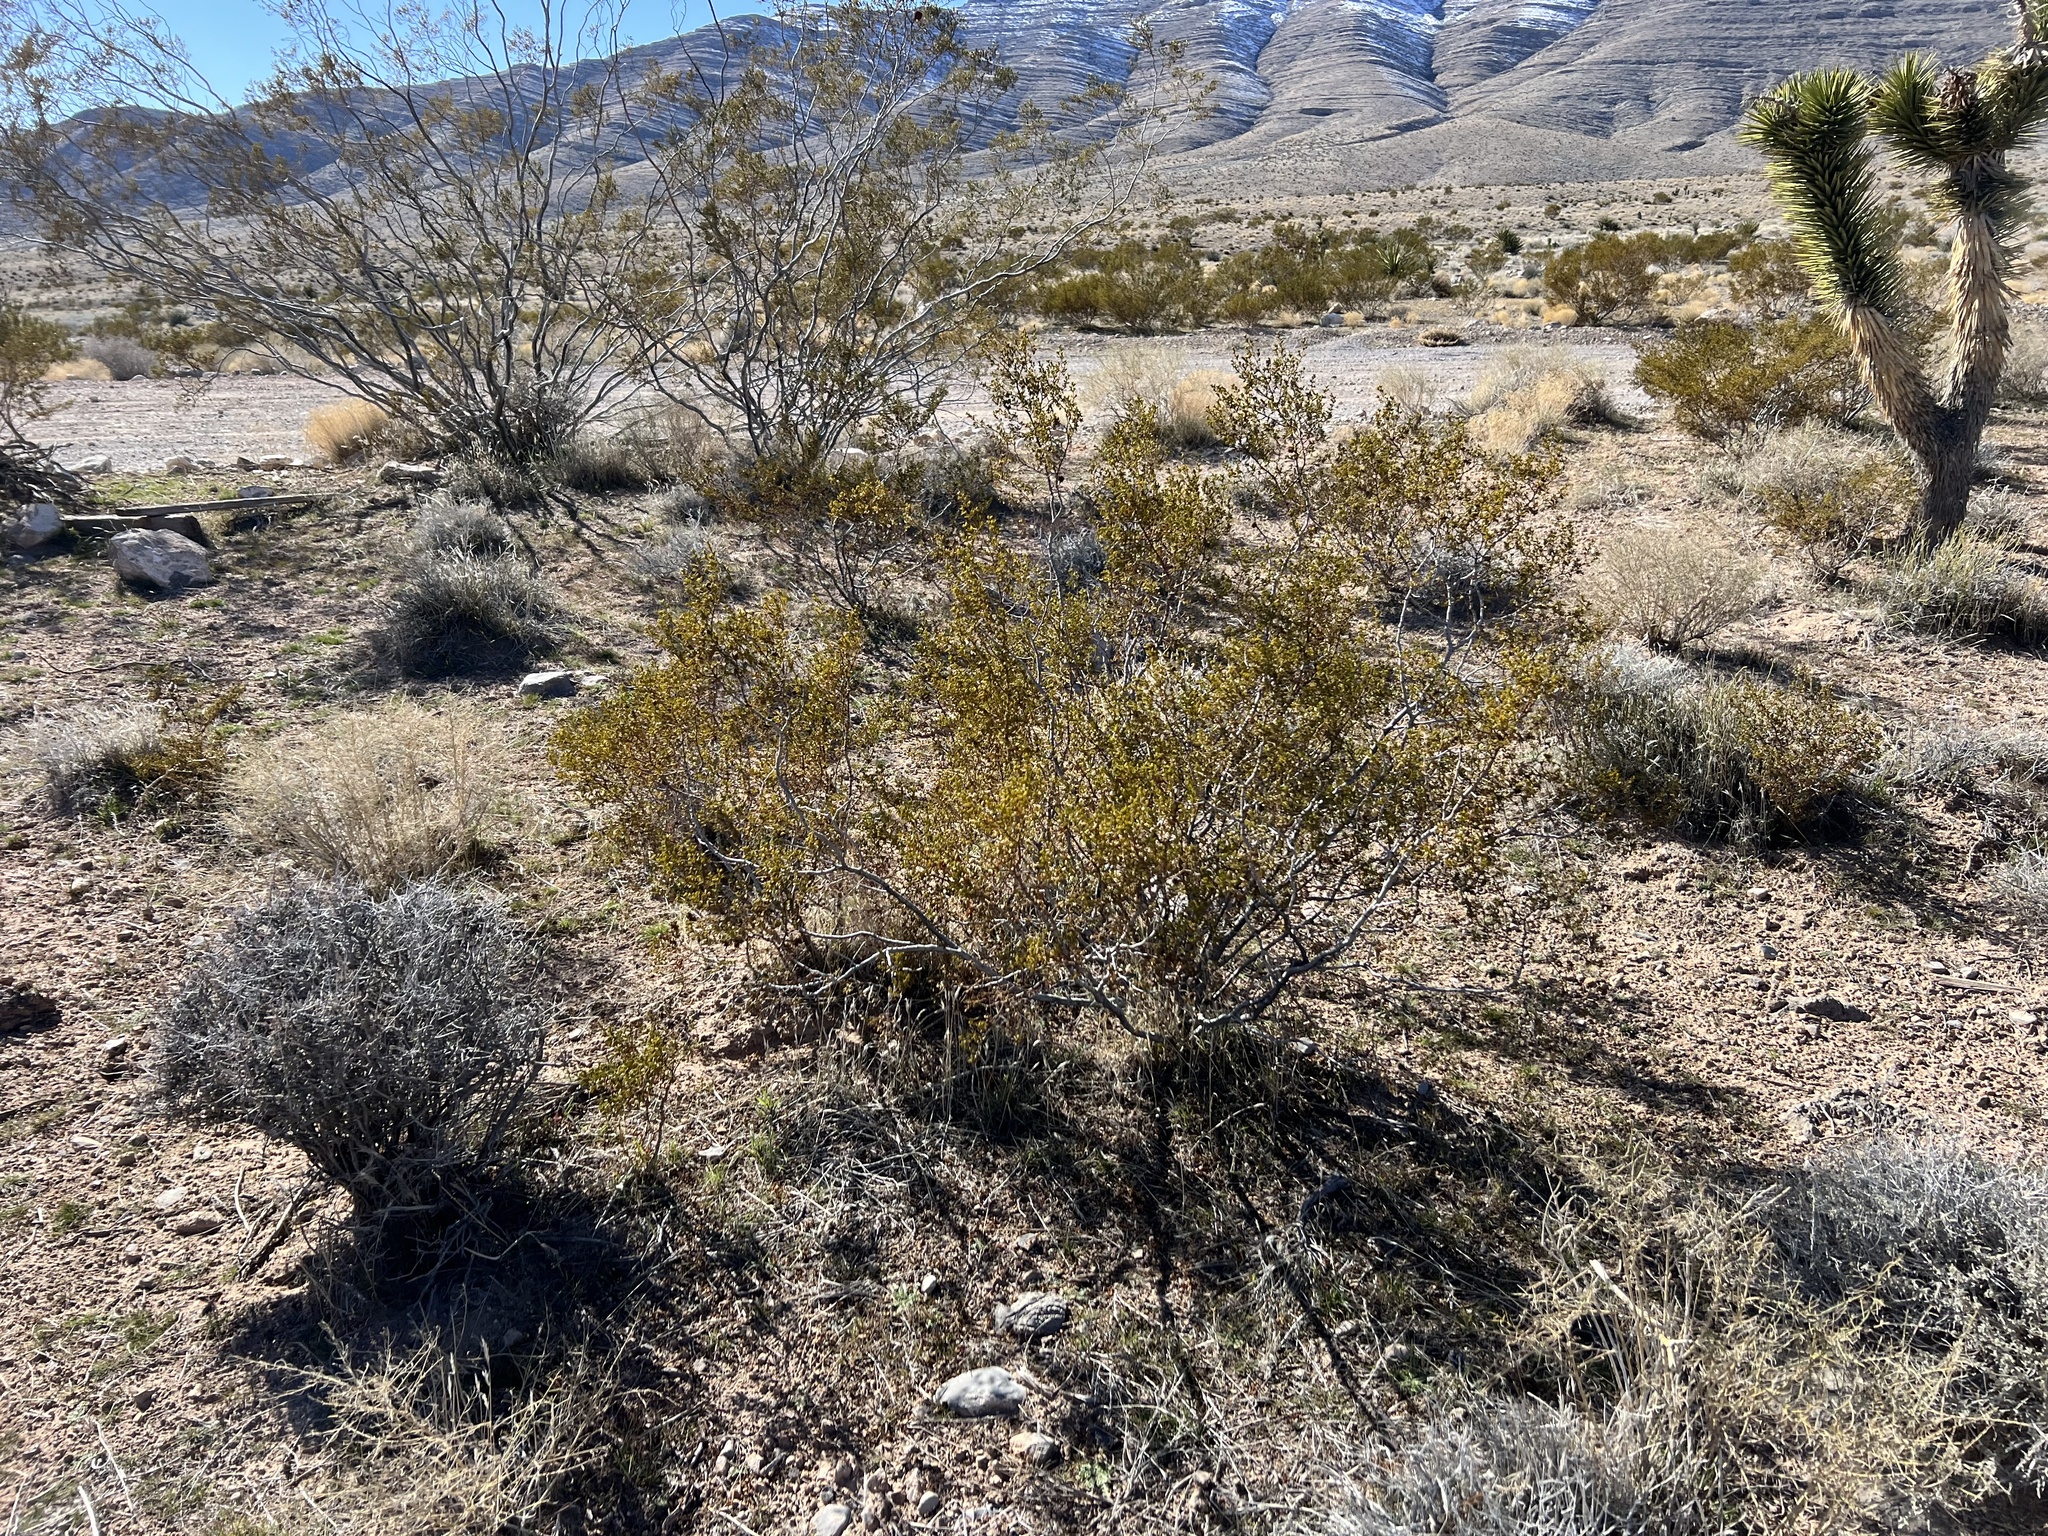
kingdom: Plantae
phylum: Tracheophyta
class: Magnoliopsida
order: Zygophyllales
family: Zygophyllaceae
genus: Larrea
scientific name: Larrea tridentata
